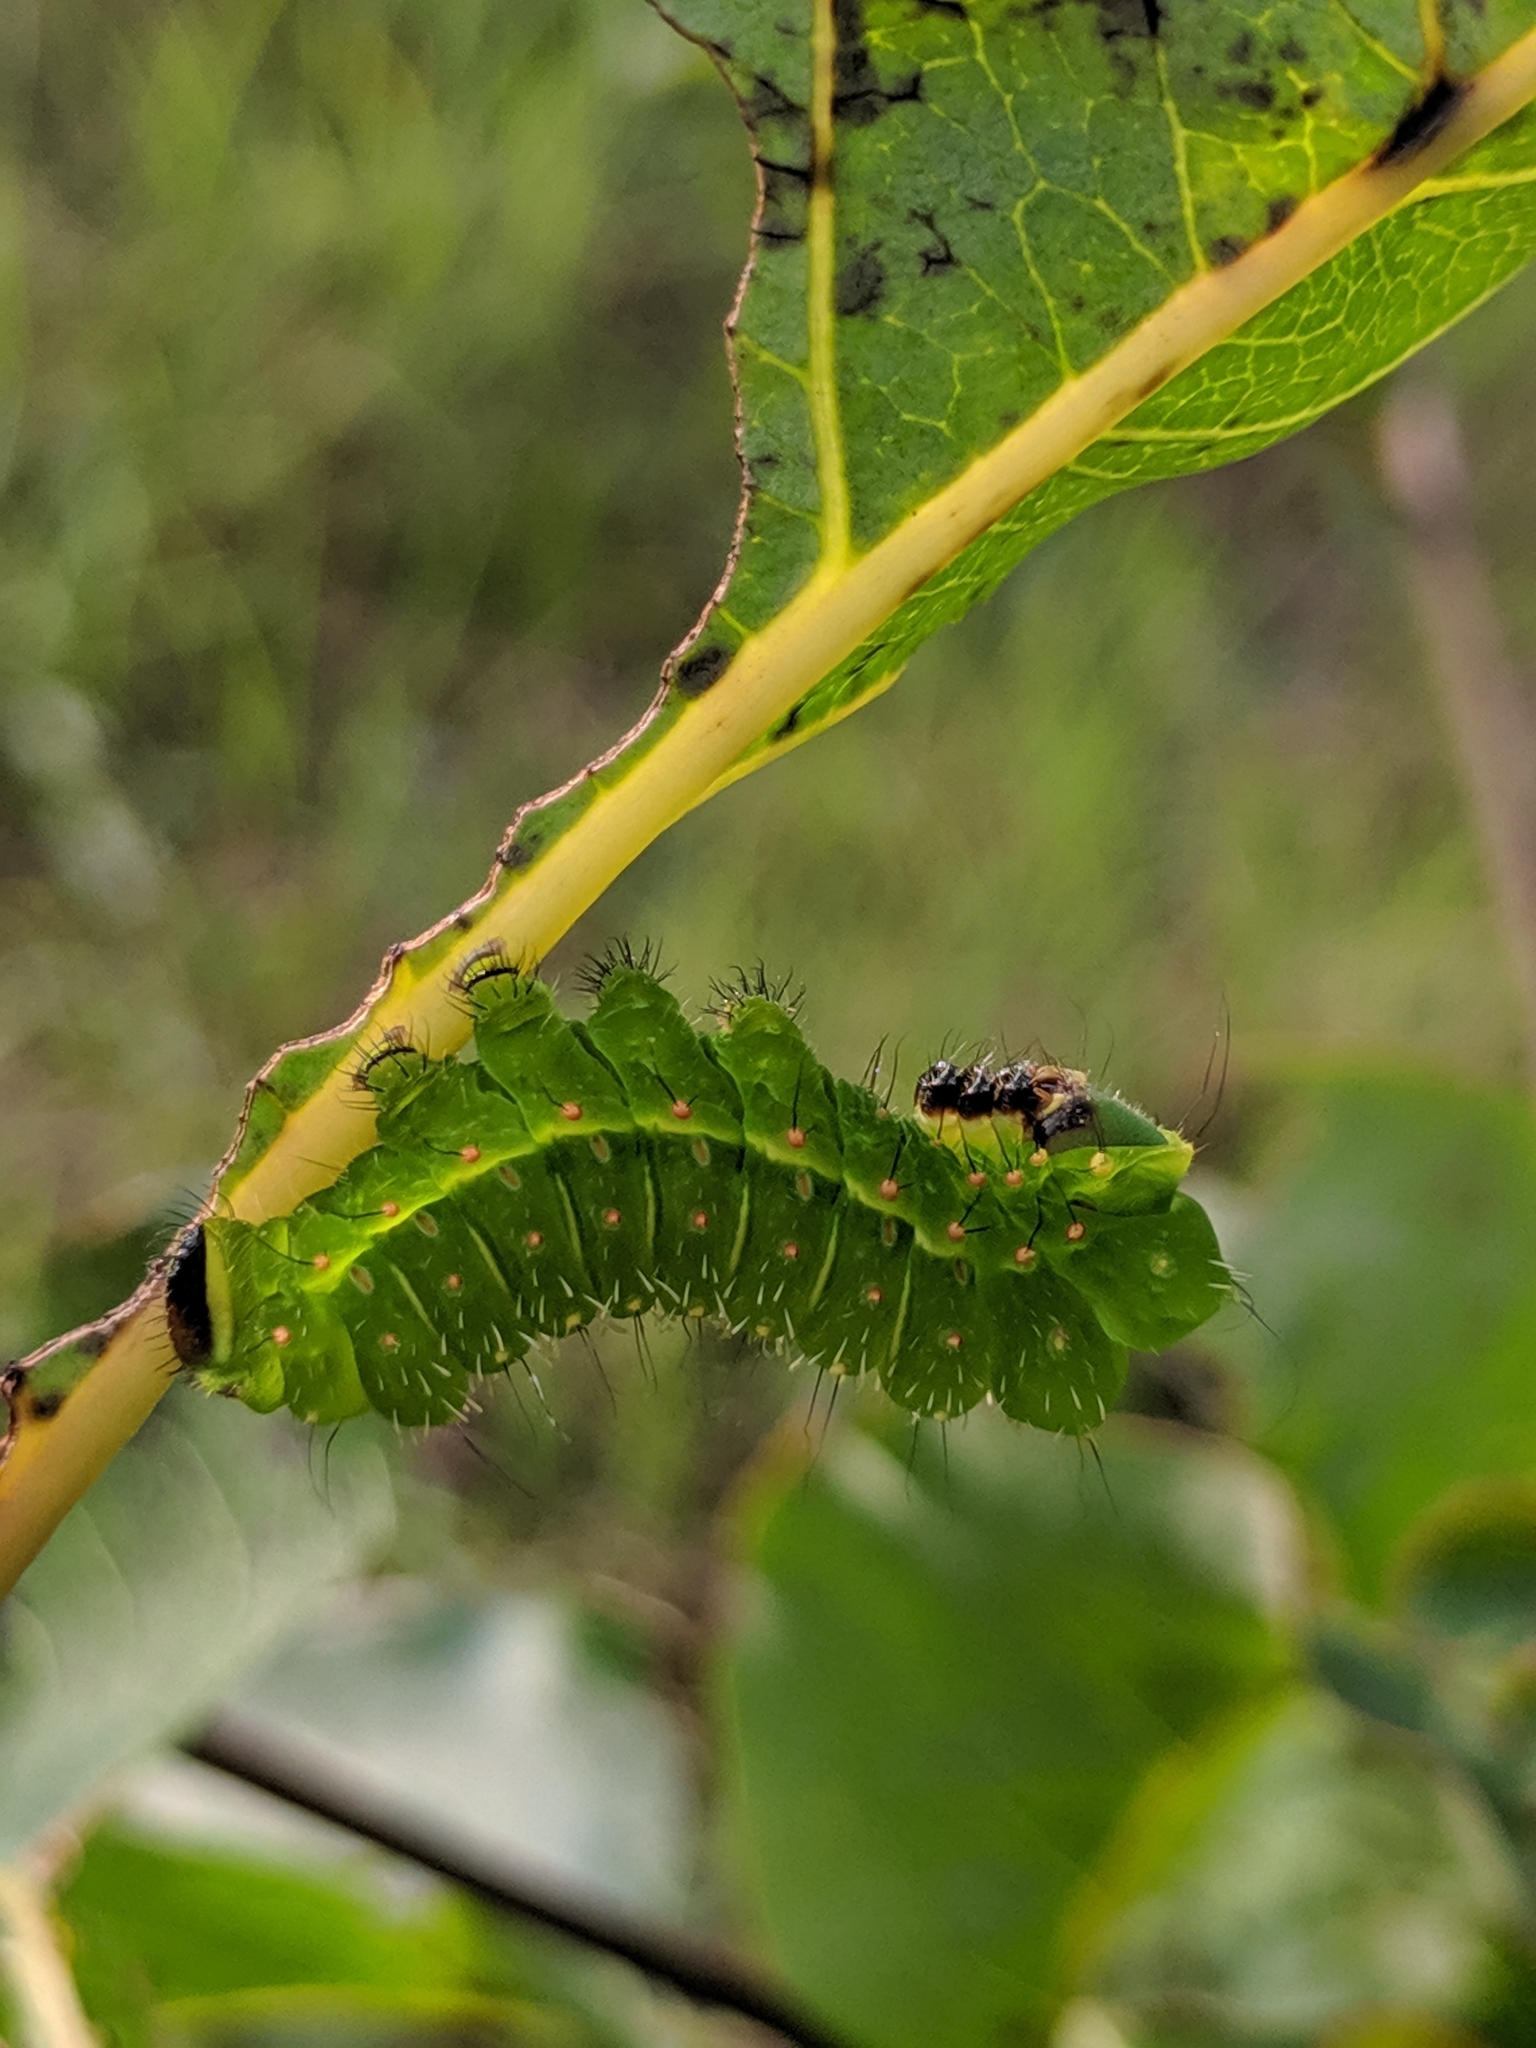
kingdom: Animalia
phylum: Arthropoda
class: Insecta
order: Lepidoptera
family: Saturniidae
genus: Actias
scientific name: Actias luna
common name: Luna moth
